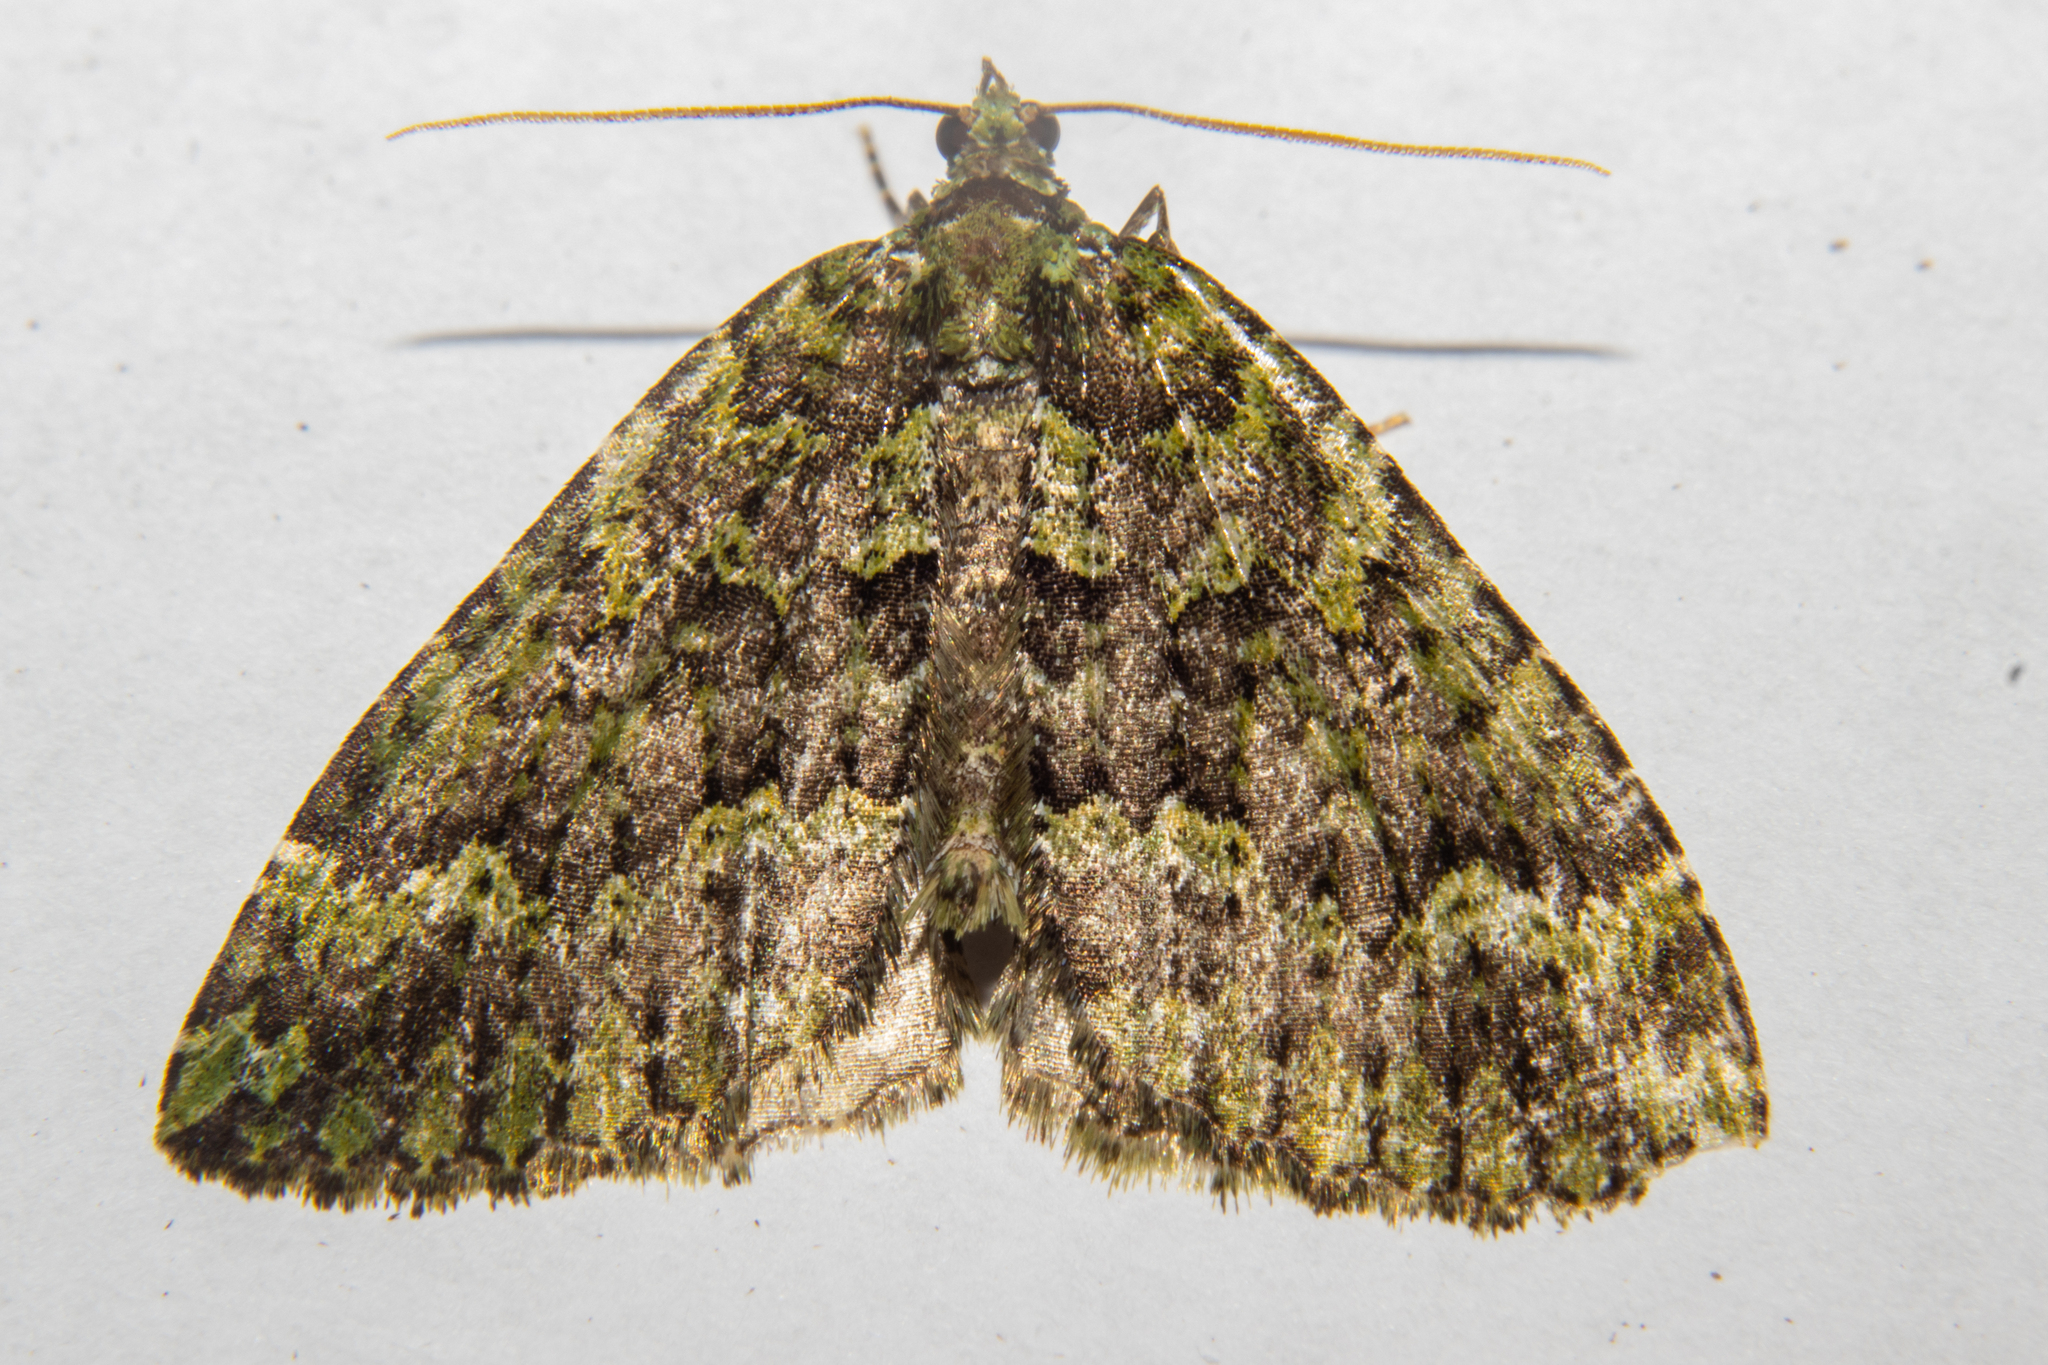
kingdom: Animalia
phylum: Arthropoda
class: Insecta
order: Lepidoptera
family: Geometridae
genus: Austrocidaria
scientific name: Austrocidaria callichlora
